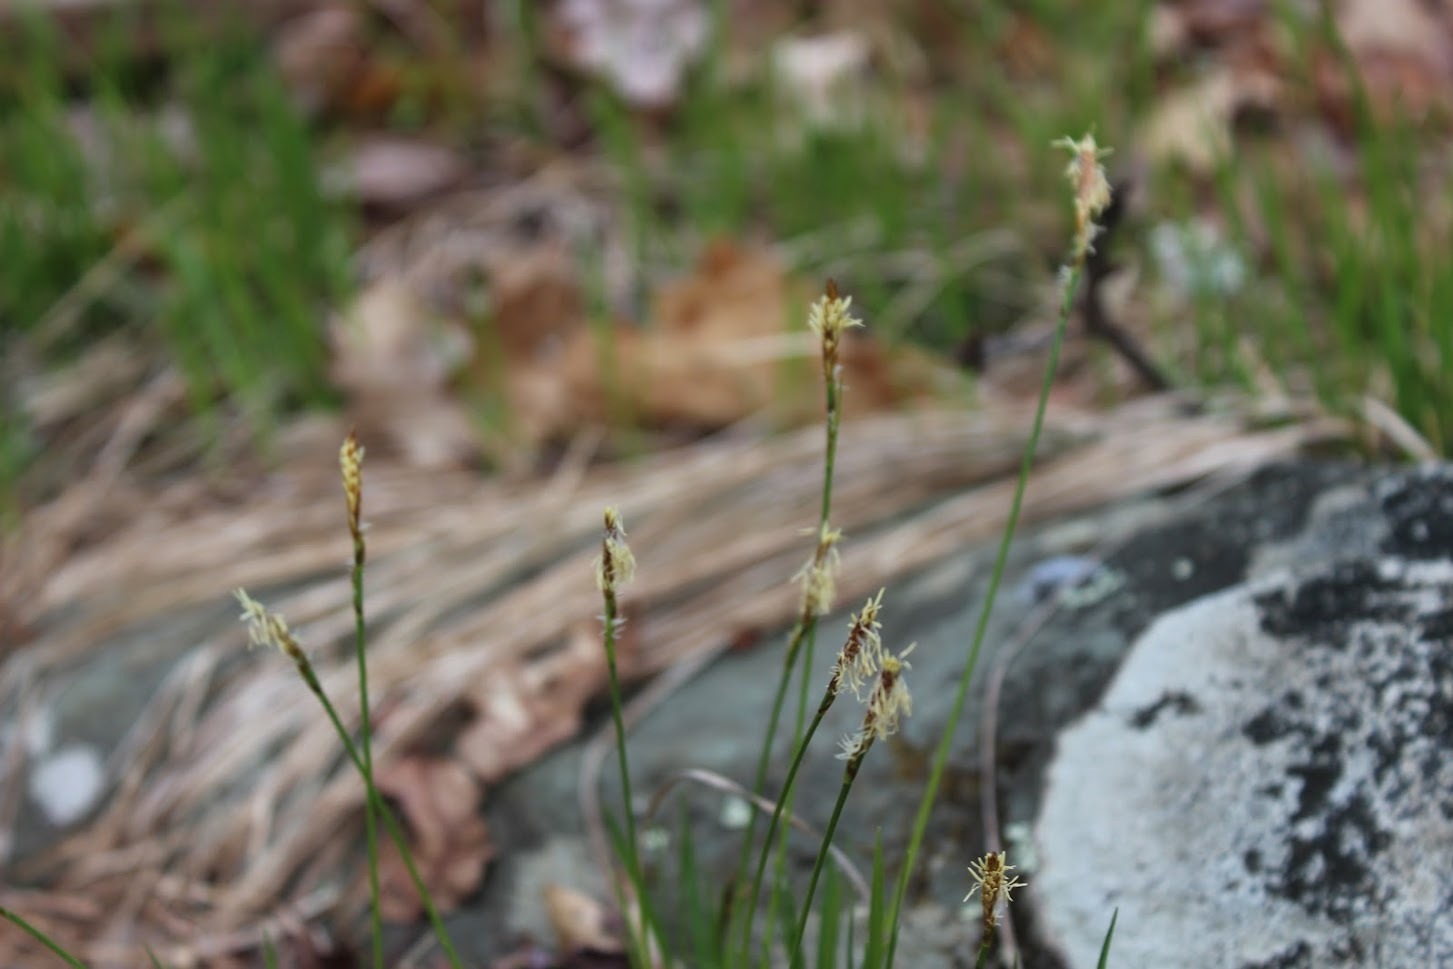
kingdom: Plantae
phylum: Tracheophyta
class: Liliopsida
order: Poales
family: Cyperaceae
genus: Carex
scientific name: Carex
